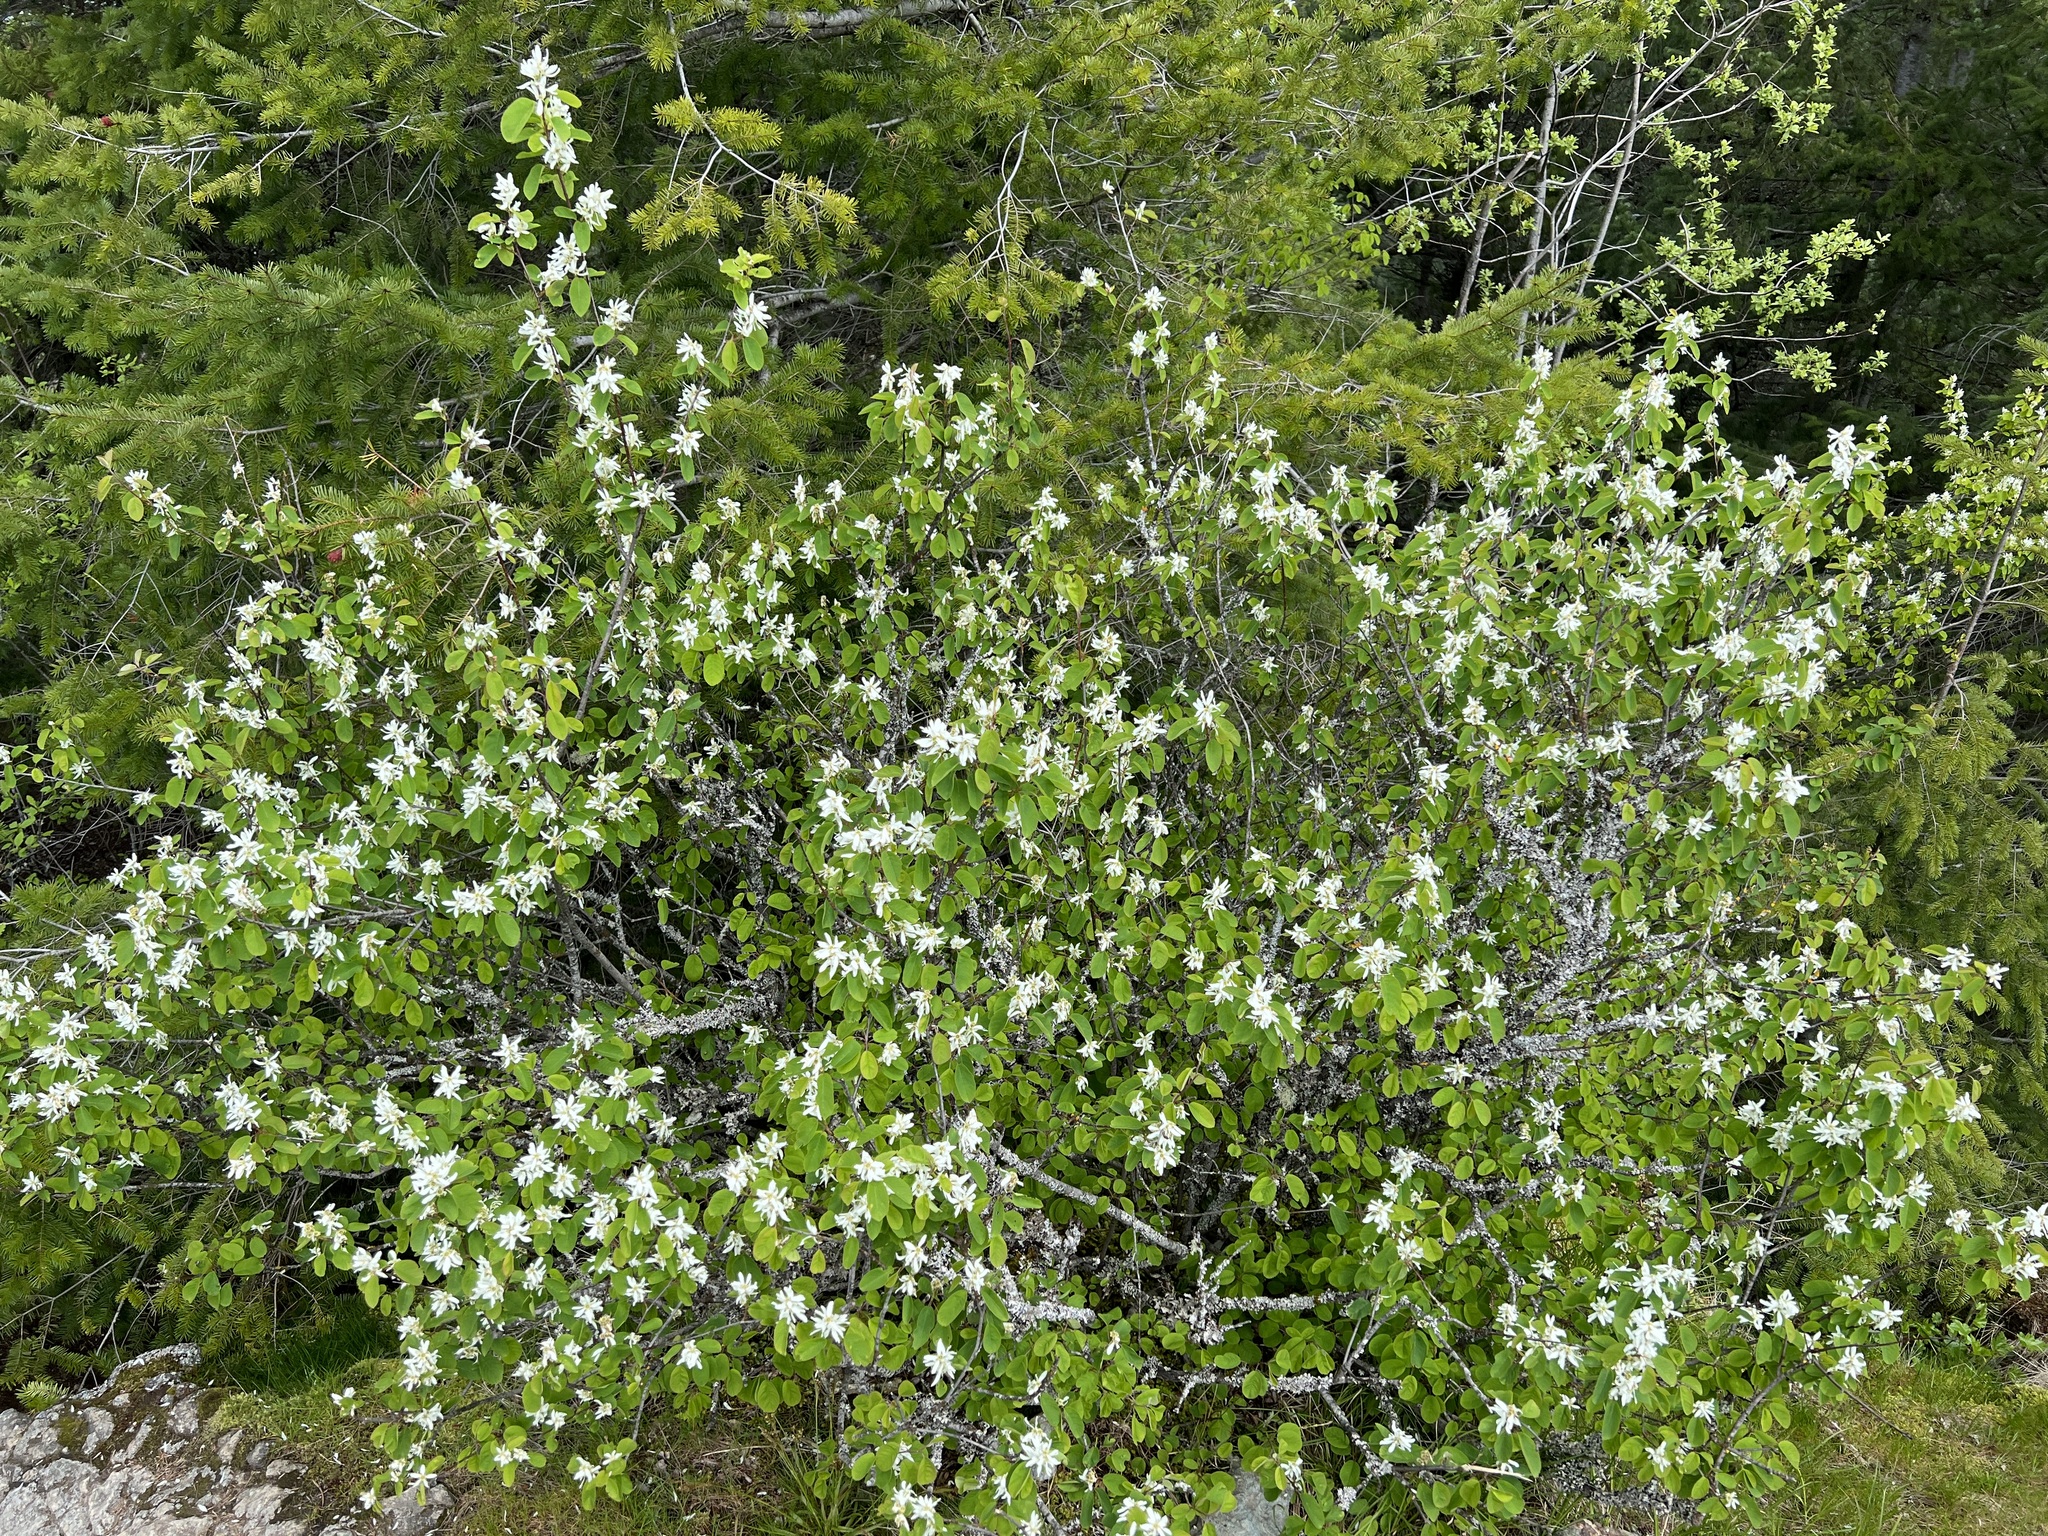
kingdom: Plantae
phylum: Tracheophyta
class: Magnoliopsida
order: Rosales
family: Rosaceae
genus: Amelanchier
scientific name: Amelanchier alnifolia
